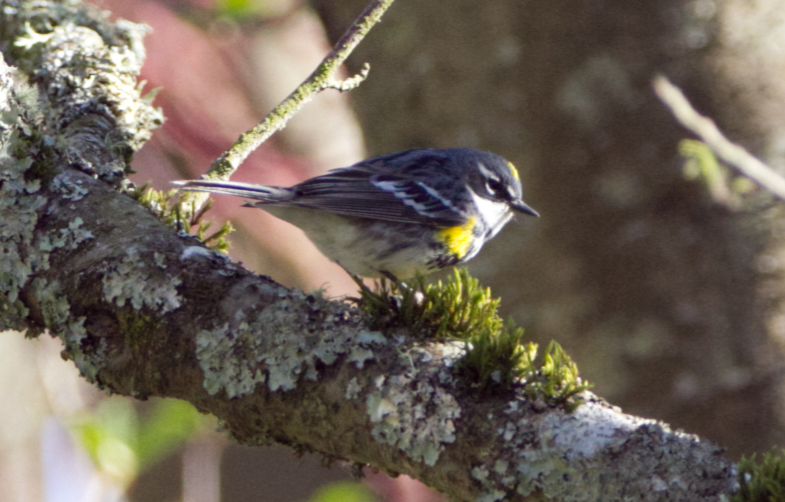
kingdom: Animalia
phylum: Chordata
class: Aves
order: Passeriformes
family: Parulidae
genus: Setophaga
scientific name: Setophaga coronata
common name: Myrtle warbler
